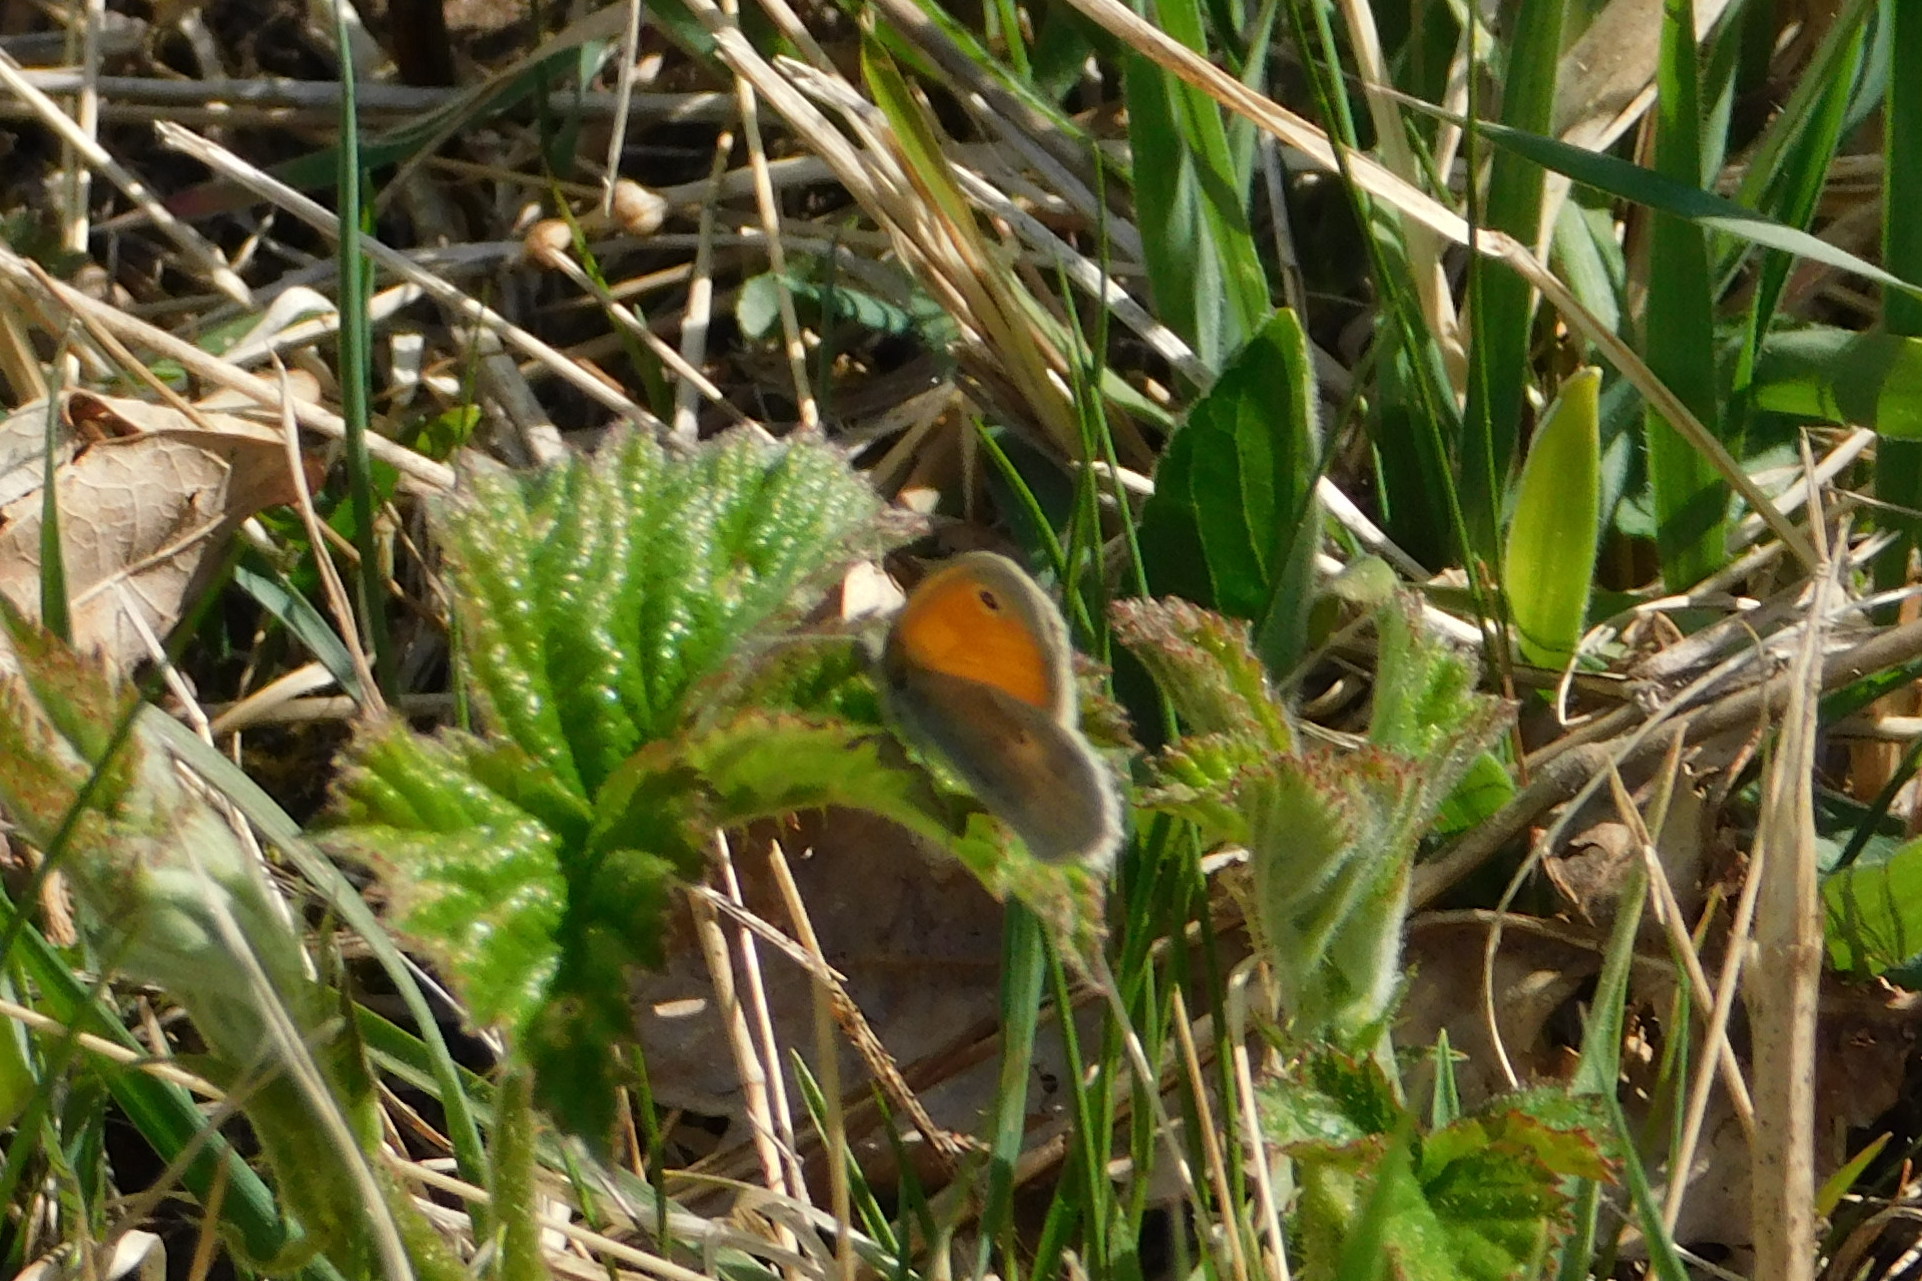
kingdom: Animalia
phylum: Arthropoda
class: Insecta
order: Lepidoptera
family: Nymphalidae
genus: Coenonympha
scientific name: Coenonympha pamphilus
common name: Small heath
